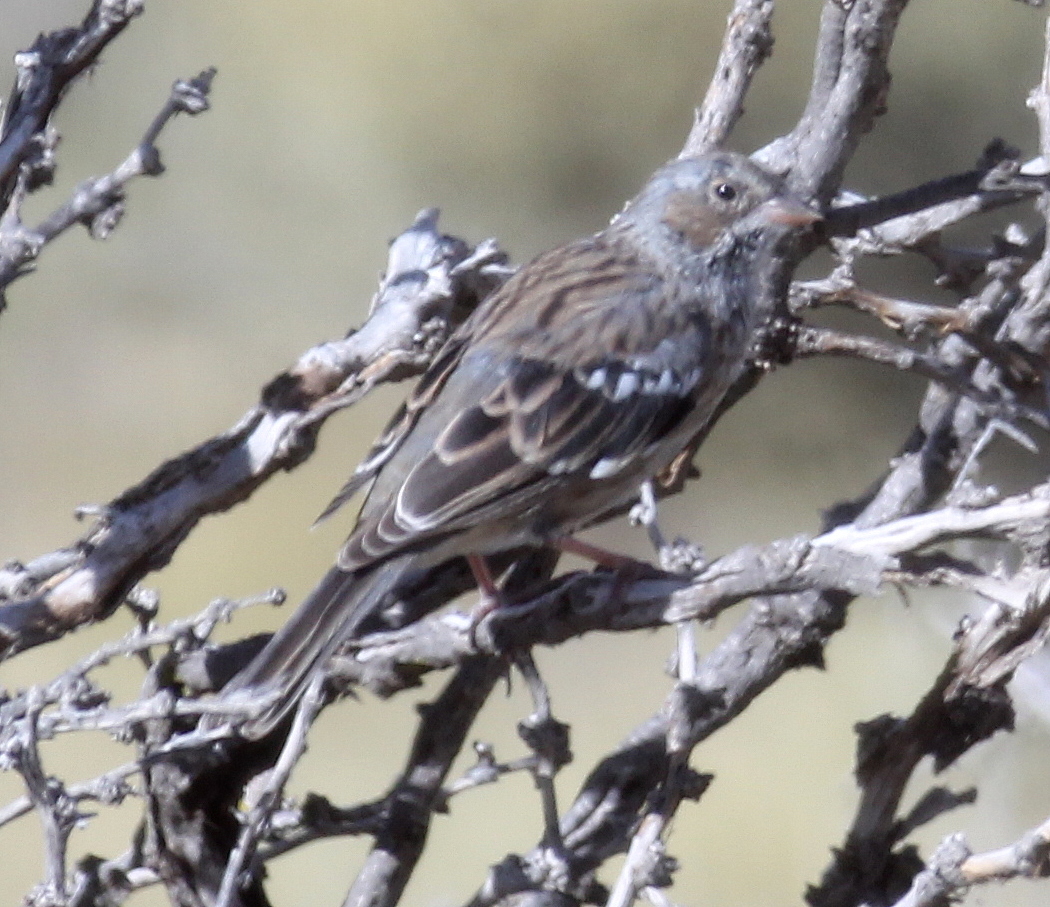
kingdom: Animalia
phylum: Chordata
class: Aves
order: Passeriformes
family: Thraupidae
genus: Rhopospina
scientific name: Rhopospina fruticeti
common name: Mourning sierra finch
